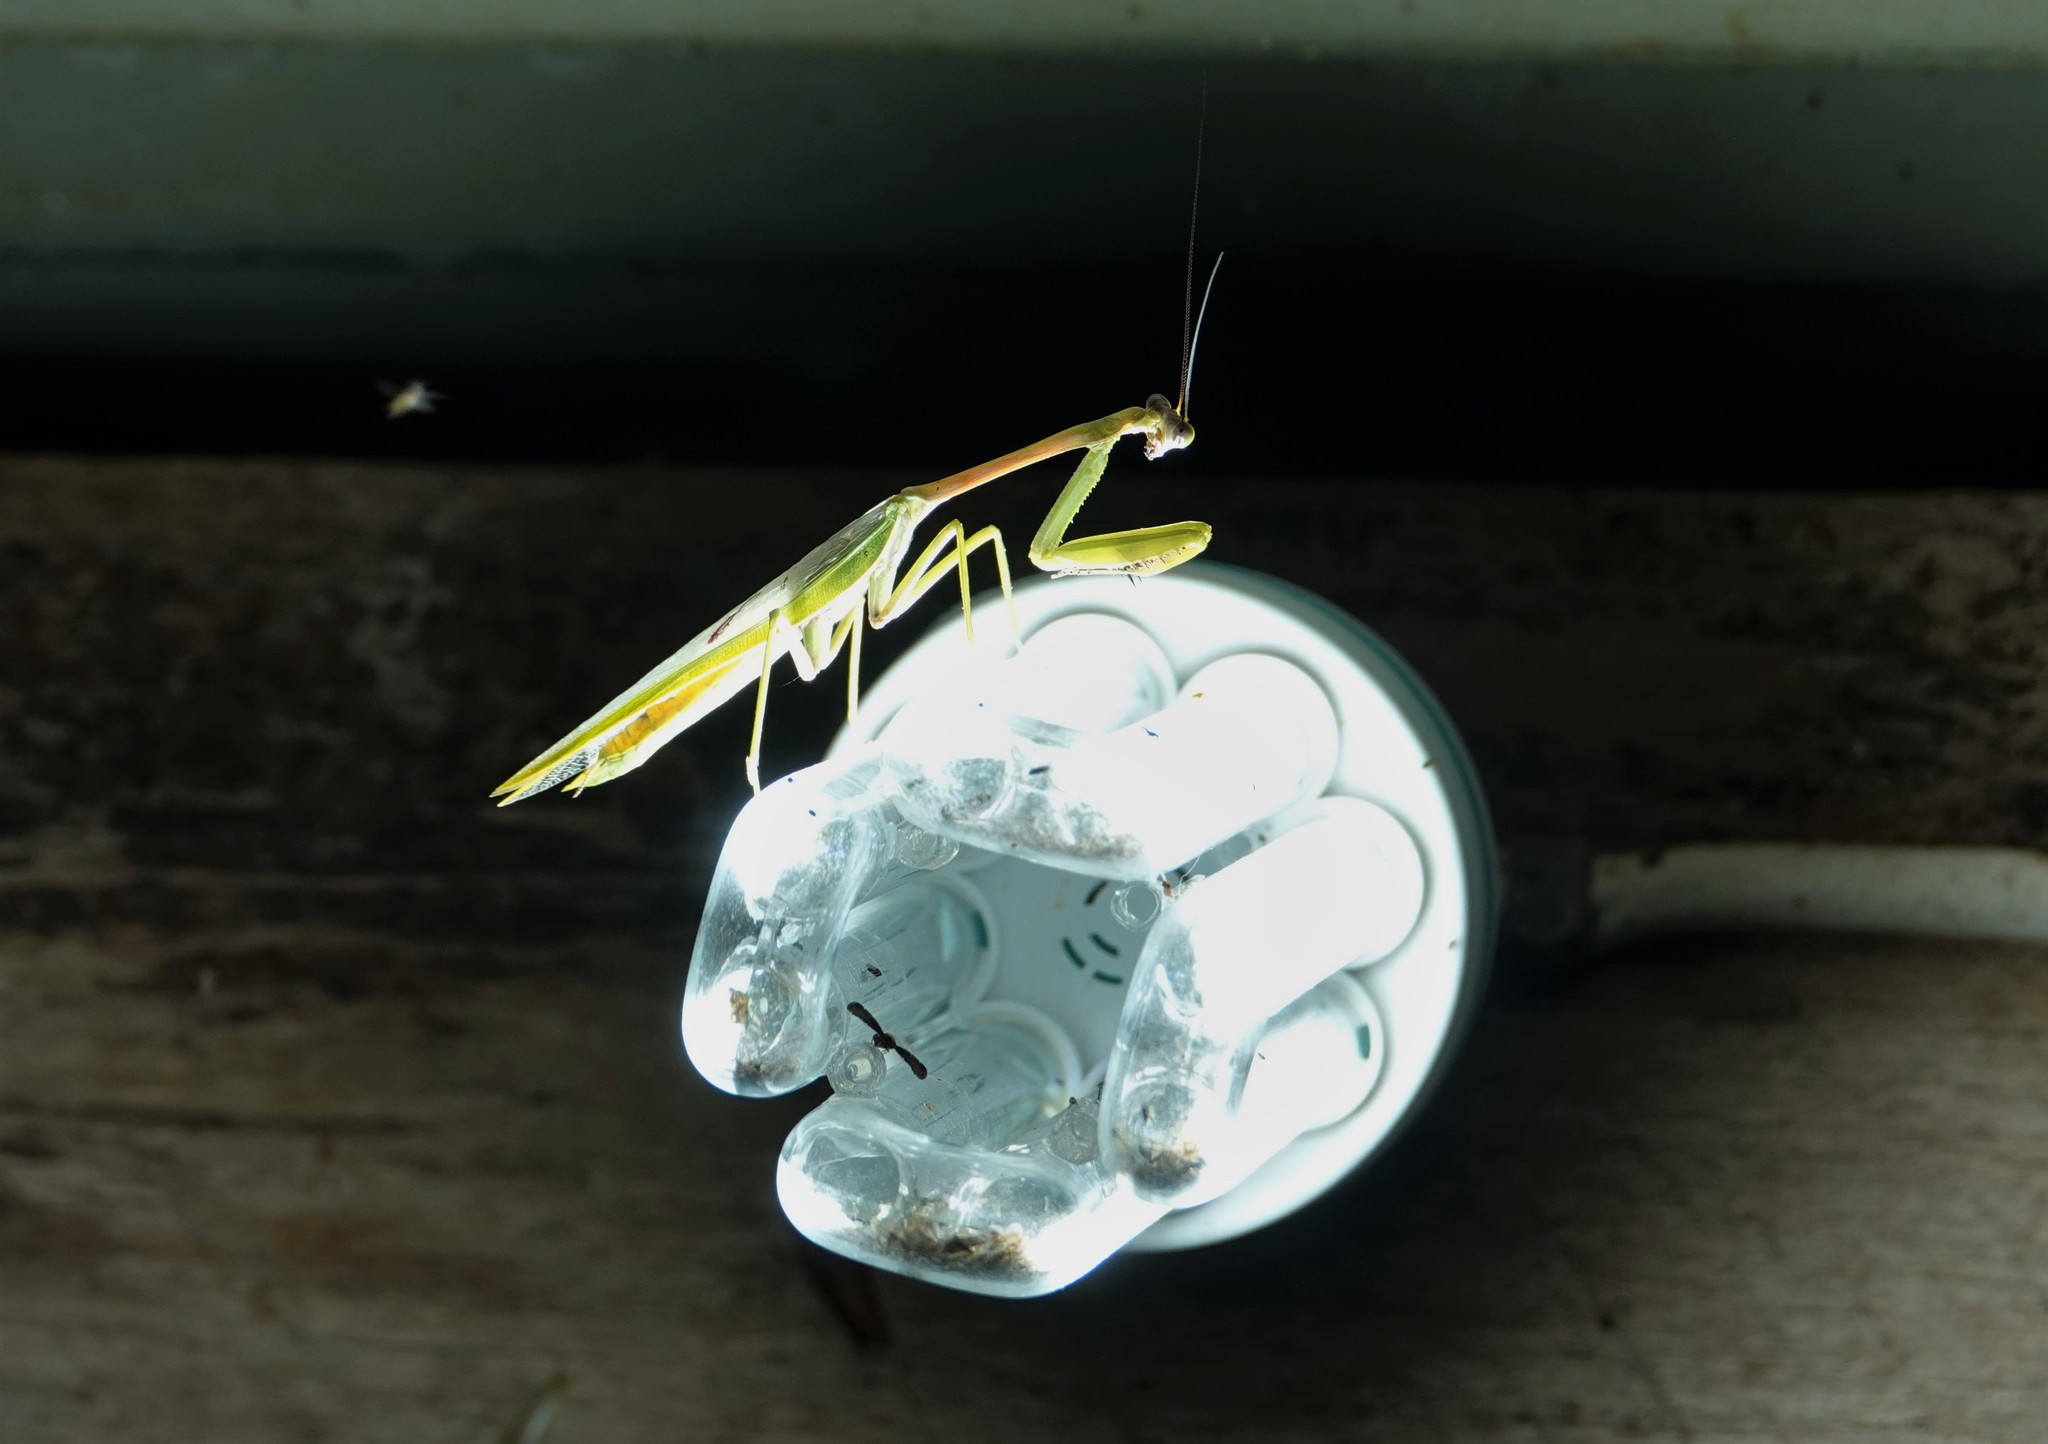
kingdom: Animalia
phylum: Arthropoda
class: Insecta
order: Mantodea
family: Mantidae
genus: Stagmatoptera
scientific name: Stagmatoptera supplicaria
